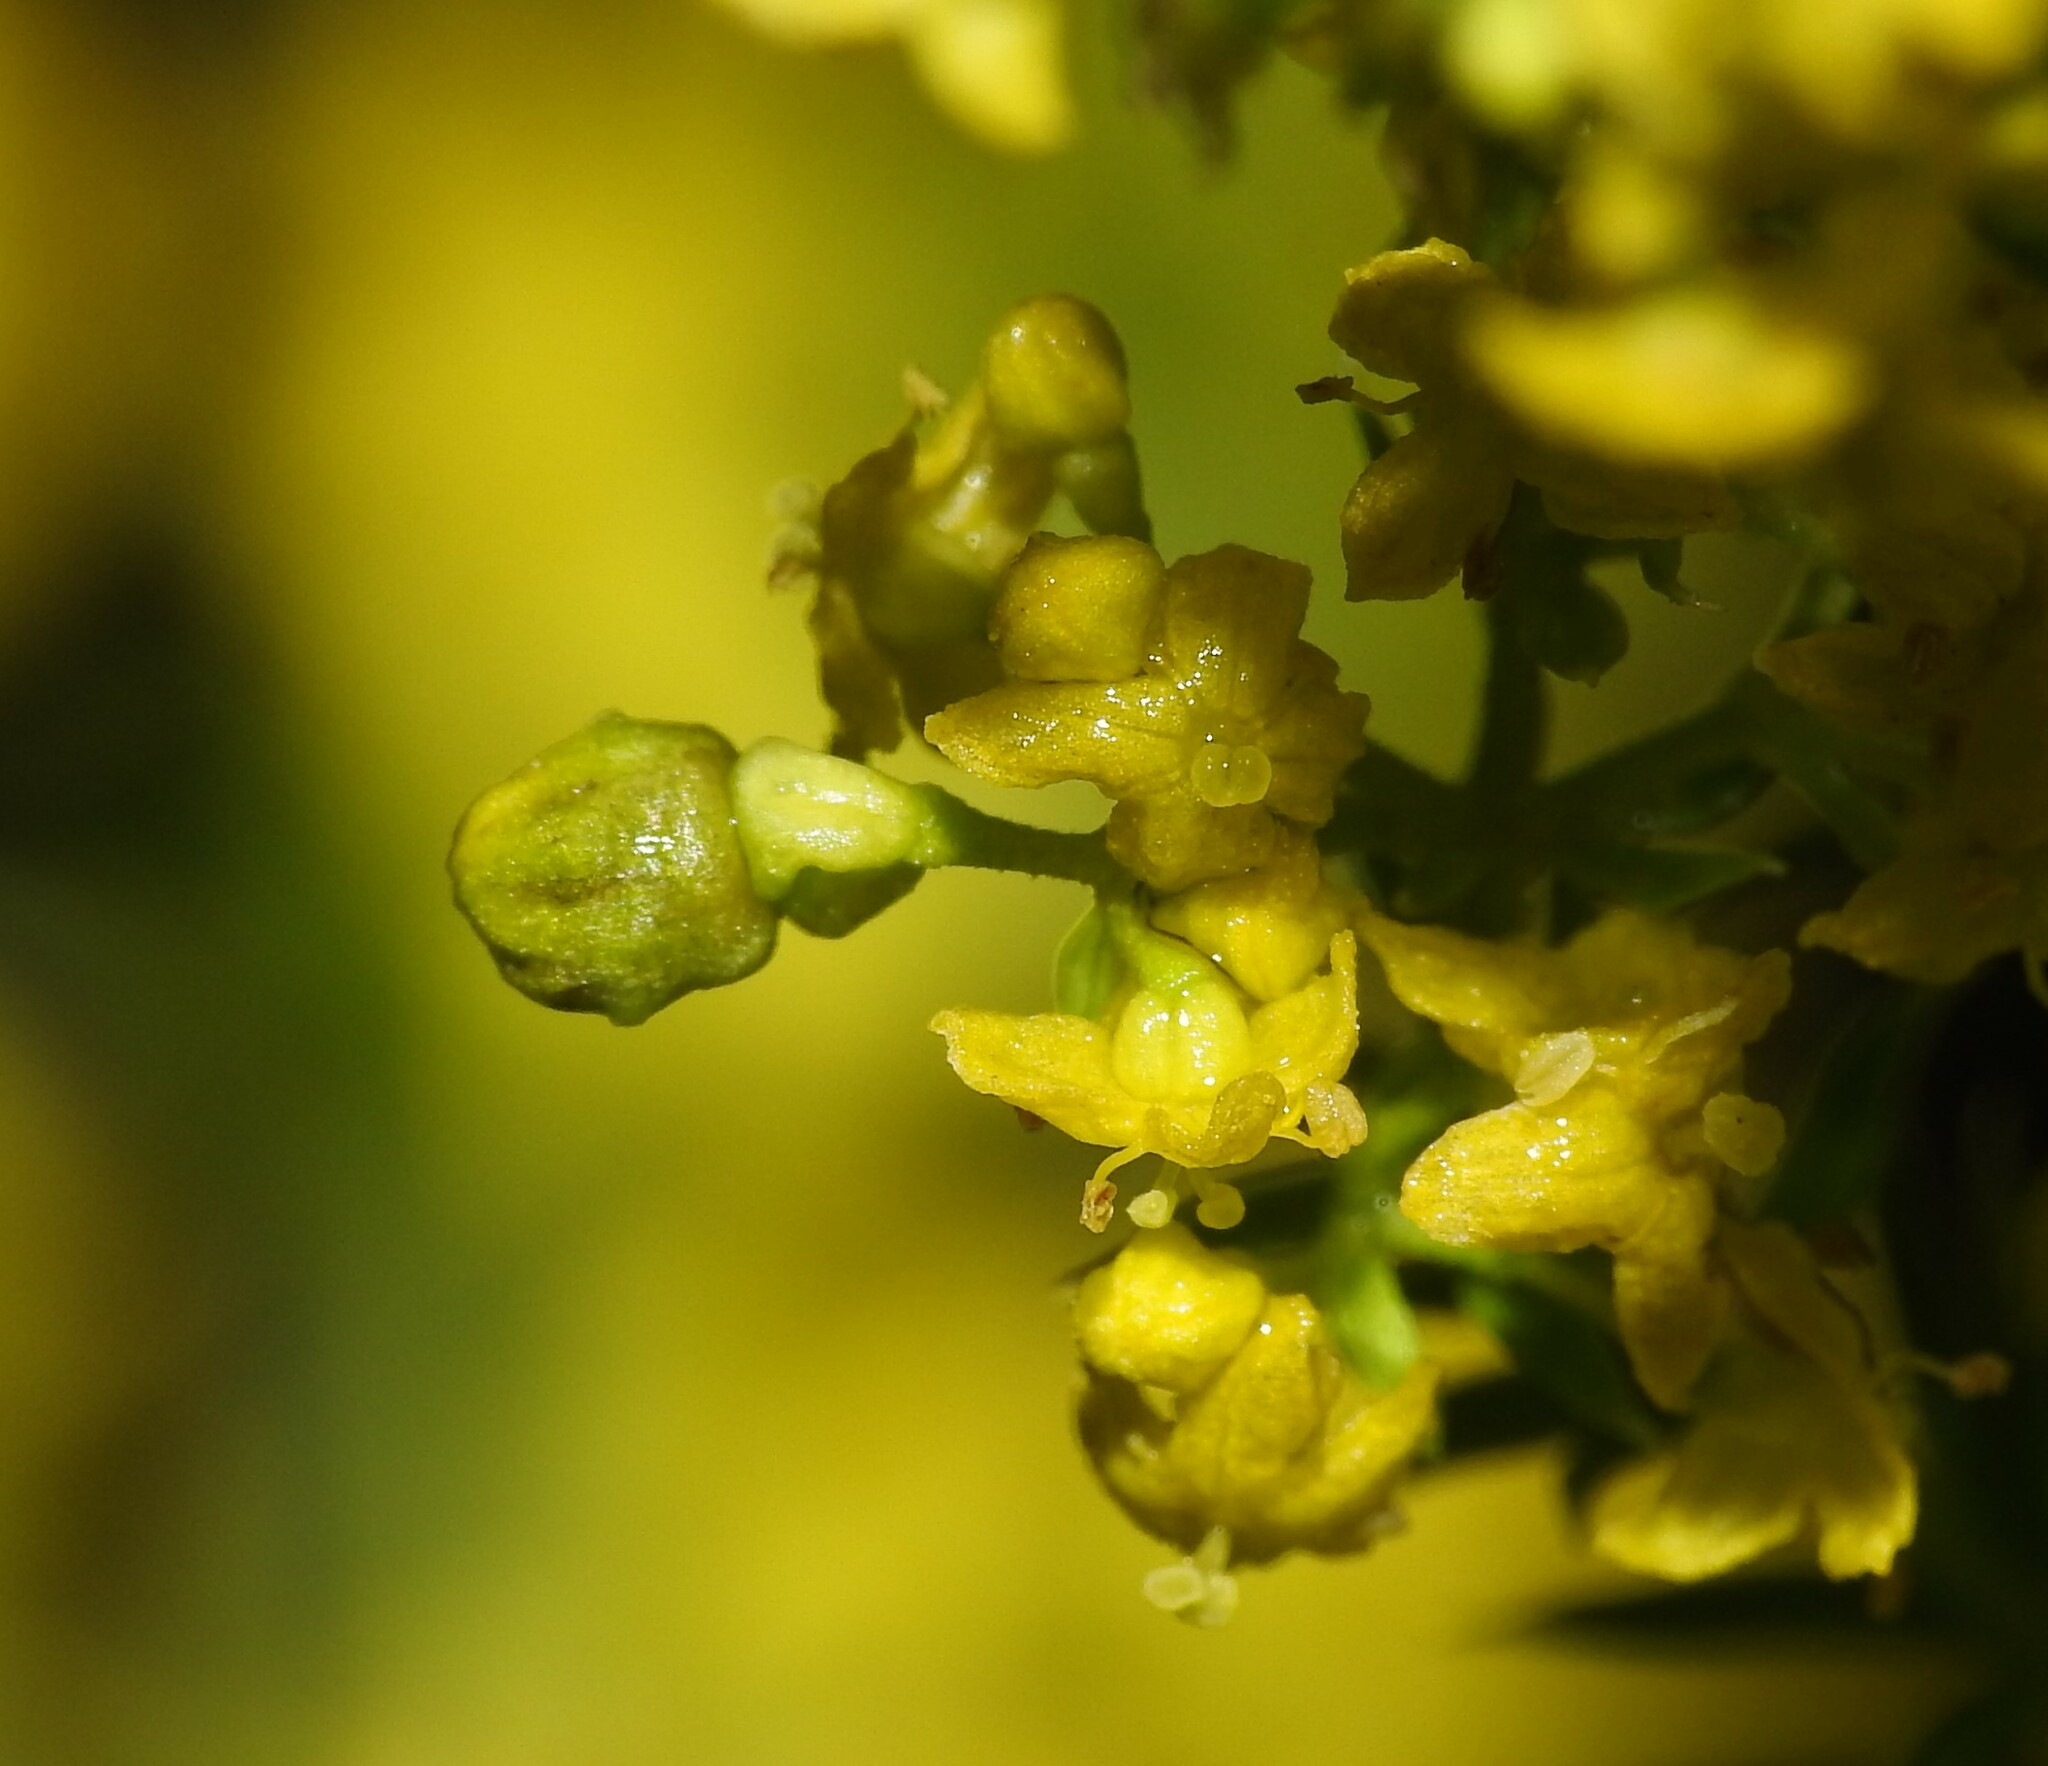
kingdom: Animalia
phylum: Arthropoda
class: Insecta
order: Diptera
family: Cecidomyiidae
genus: Schizomyia
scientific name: Schizomyia galiorum
